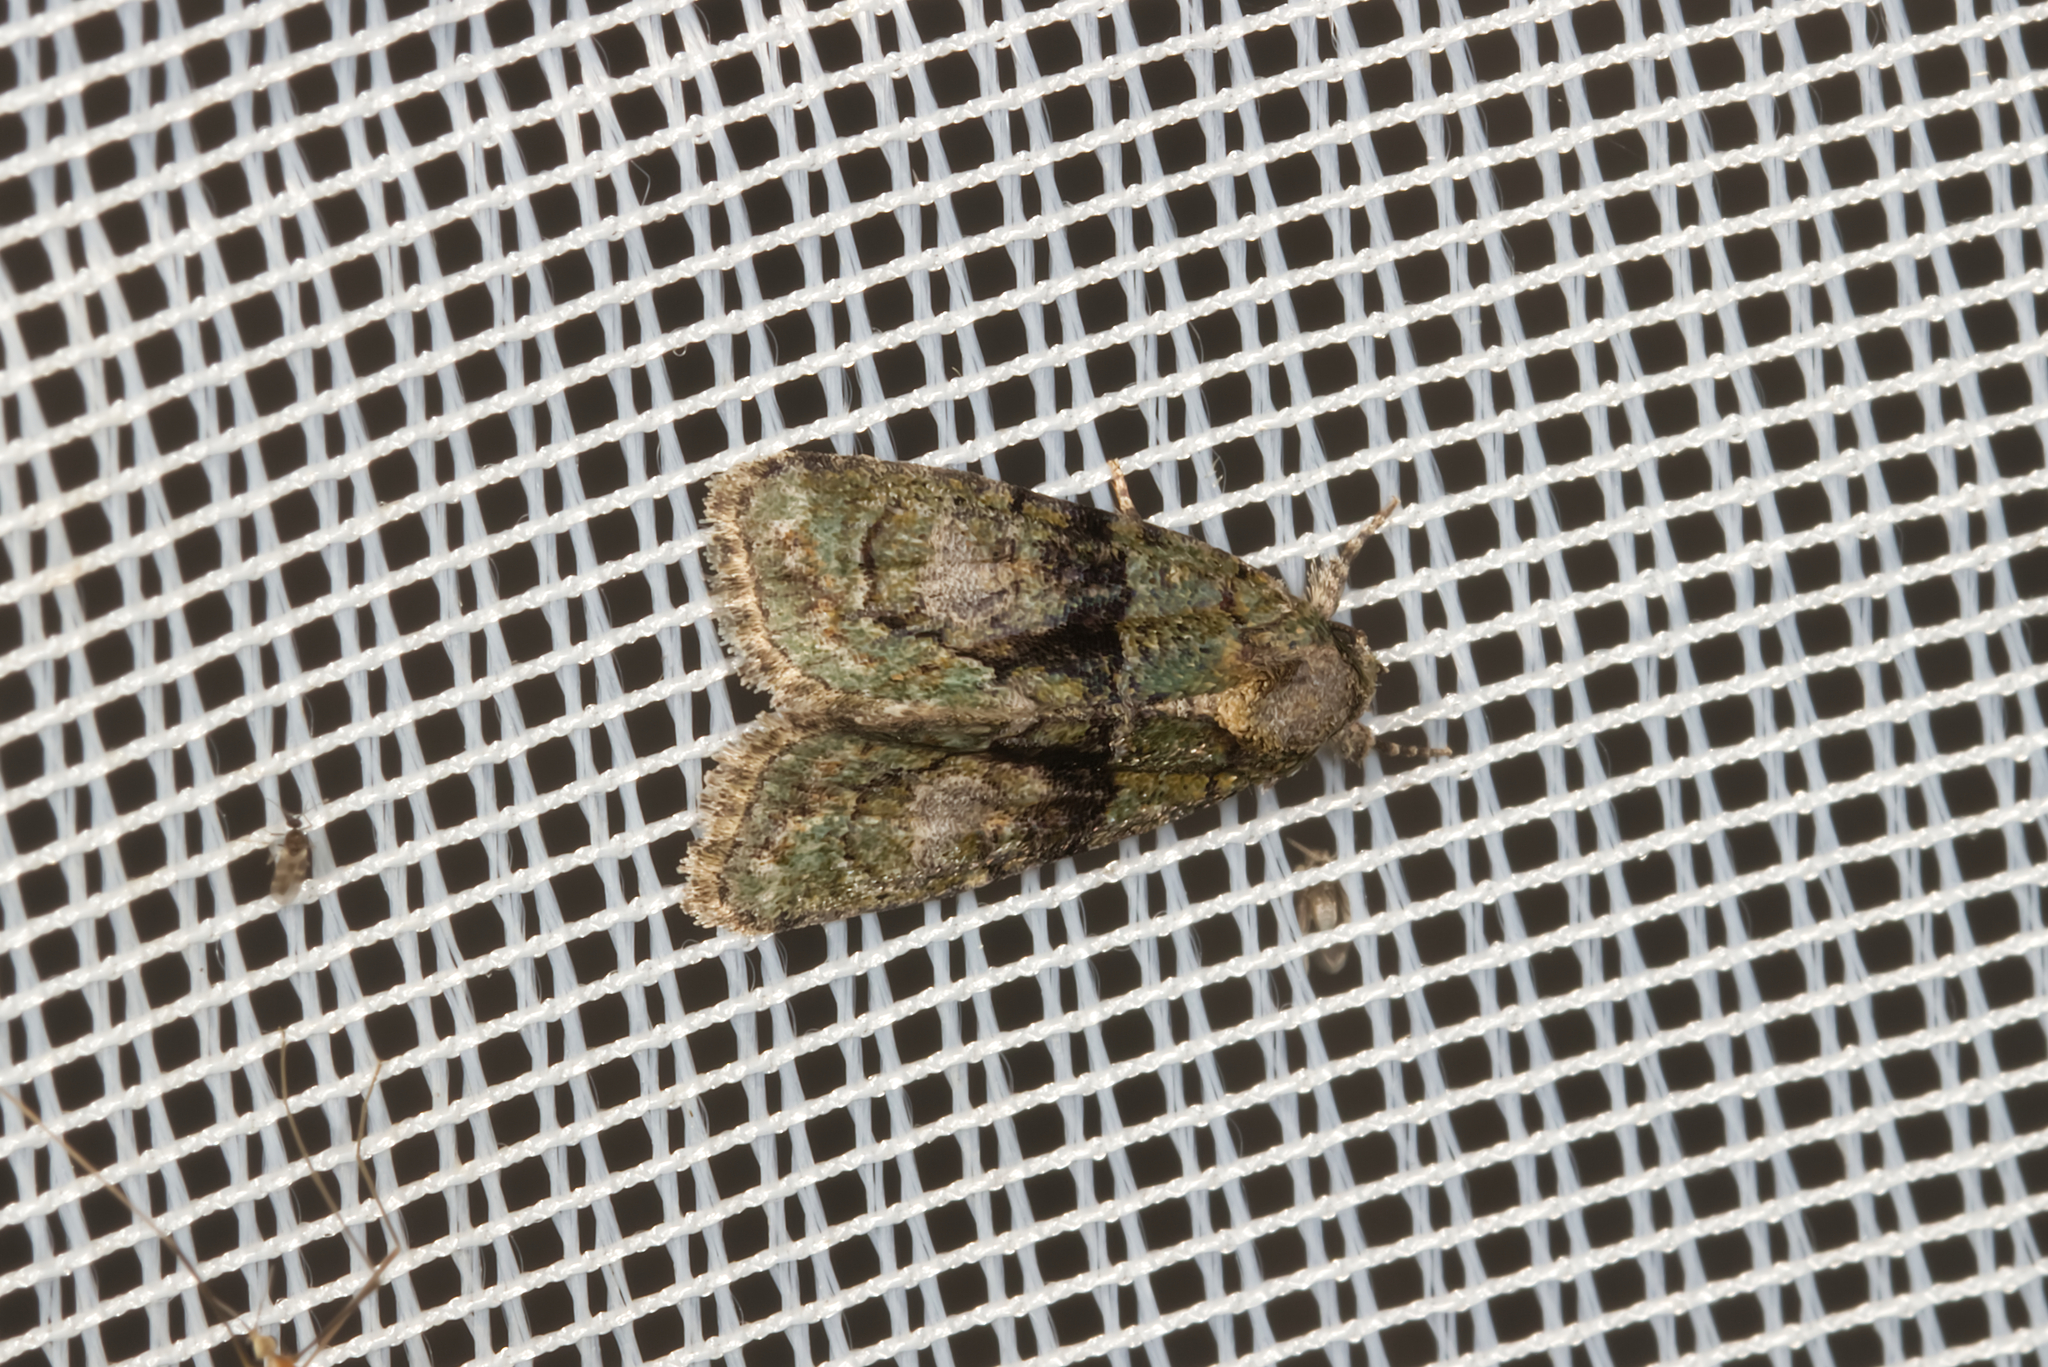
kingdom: Animalia
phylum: Arthropoda
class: Insecta
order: Lepidoptera
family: Noctuidae
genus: Cryphia
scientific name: Cryphia algae
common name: Tree-lichen beauty
